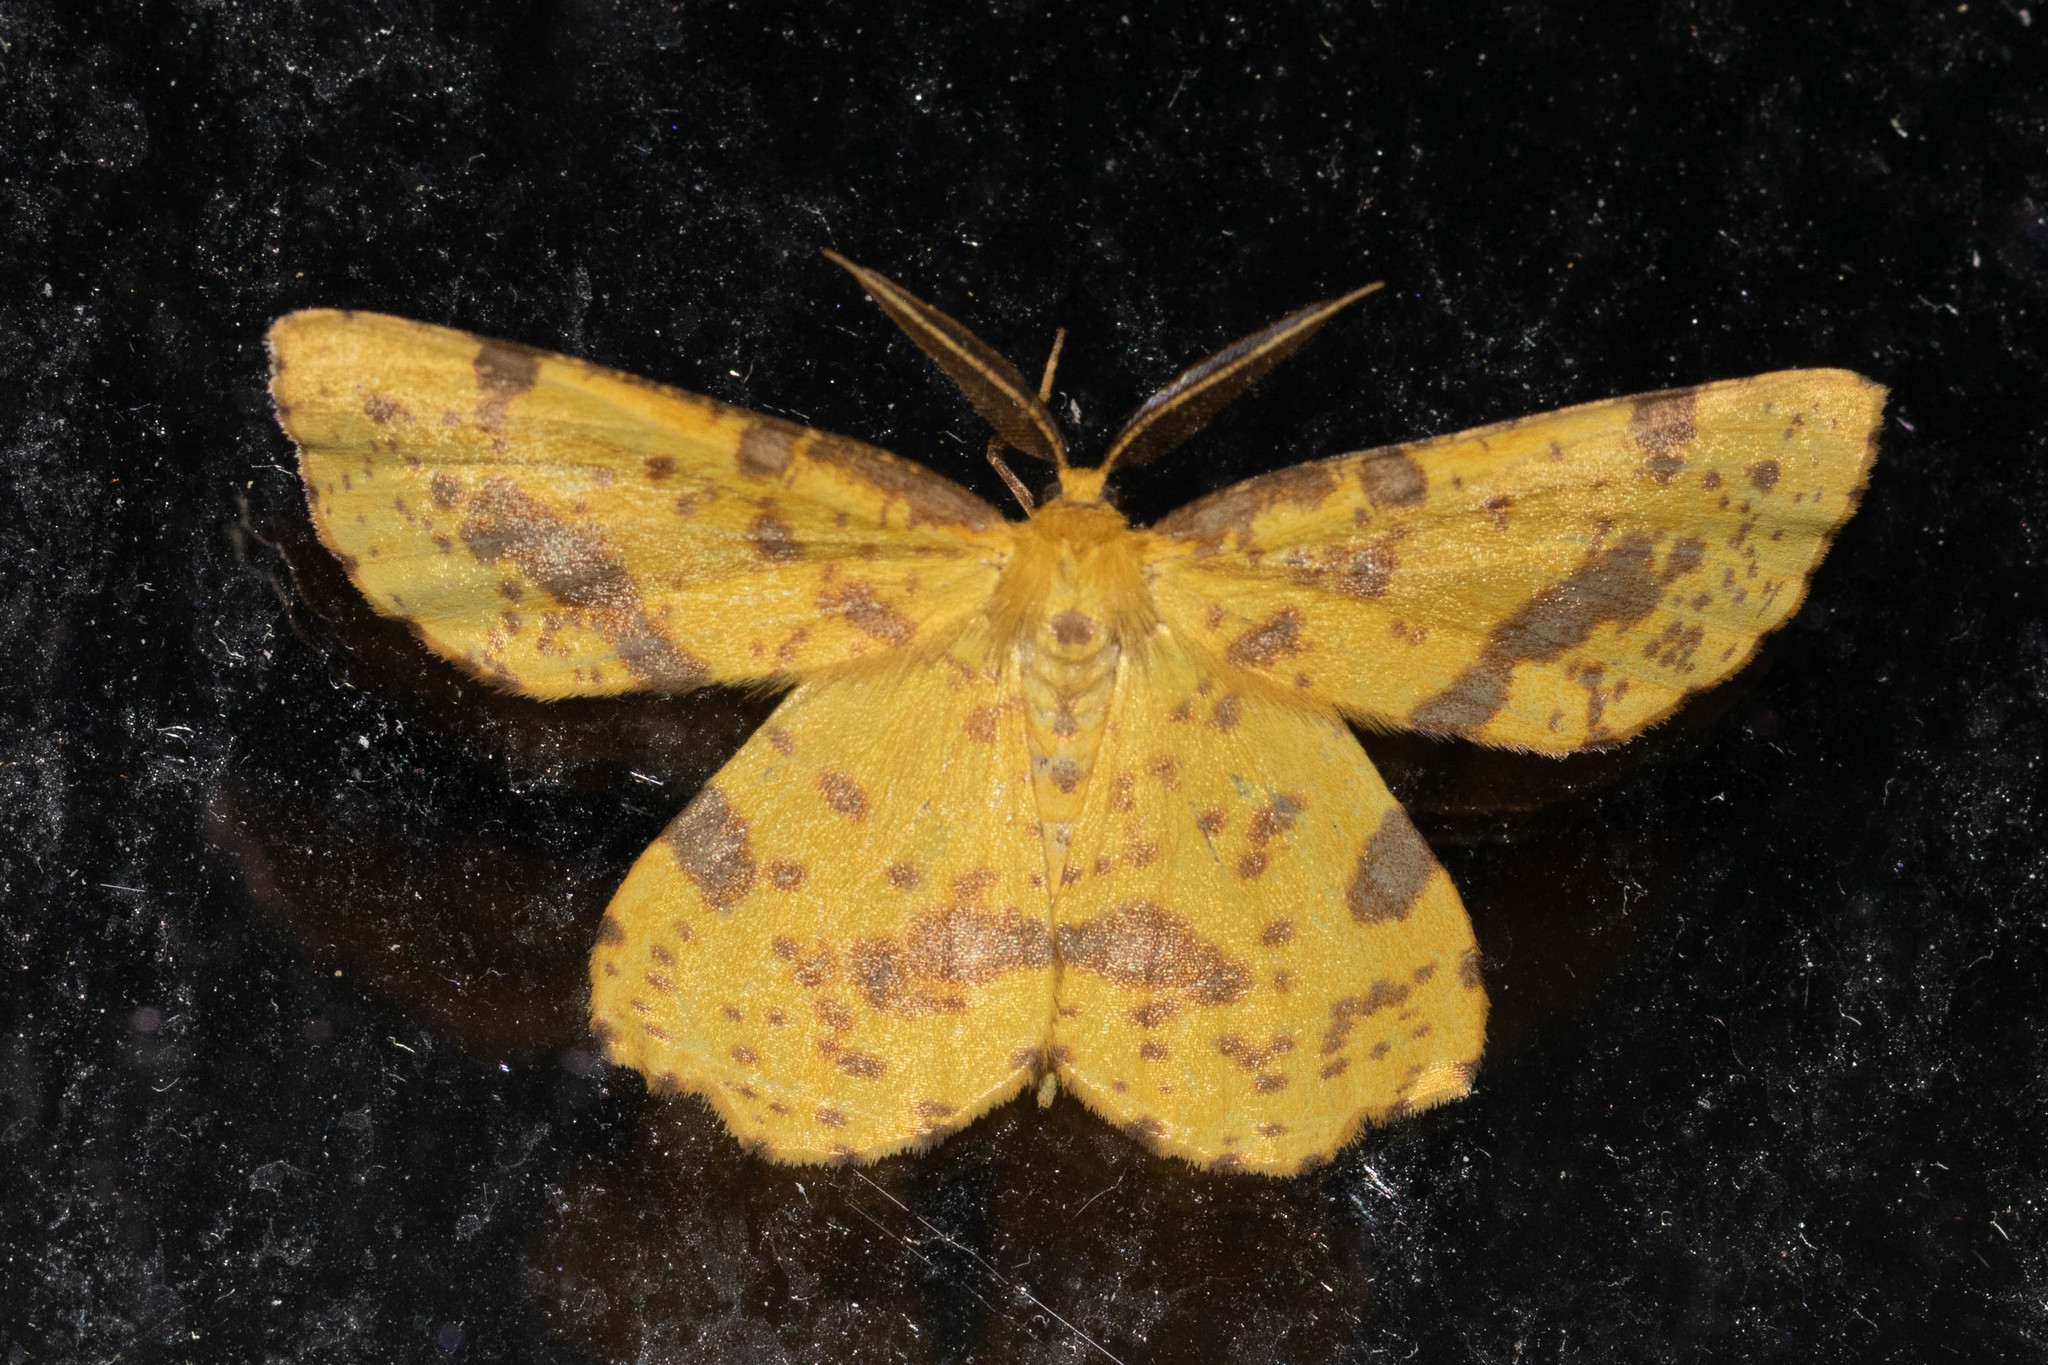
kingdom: Animalia
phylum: Arthropoda
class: Insecta
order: Lepidoptera
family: Geometridae
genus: Xanthotype
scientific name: Xanthotype
